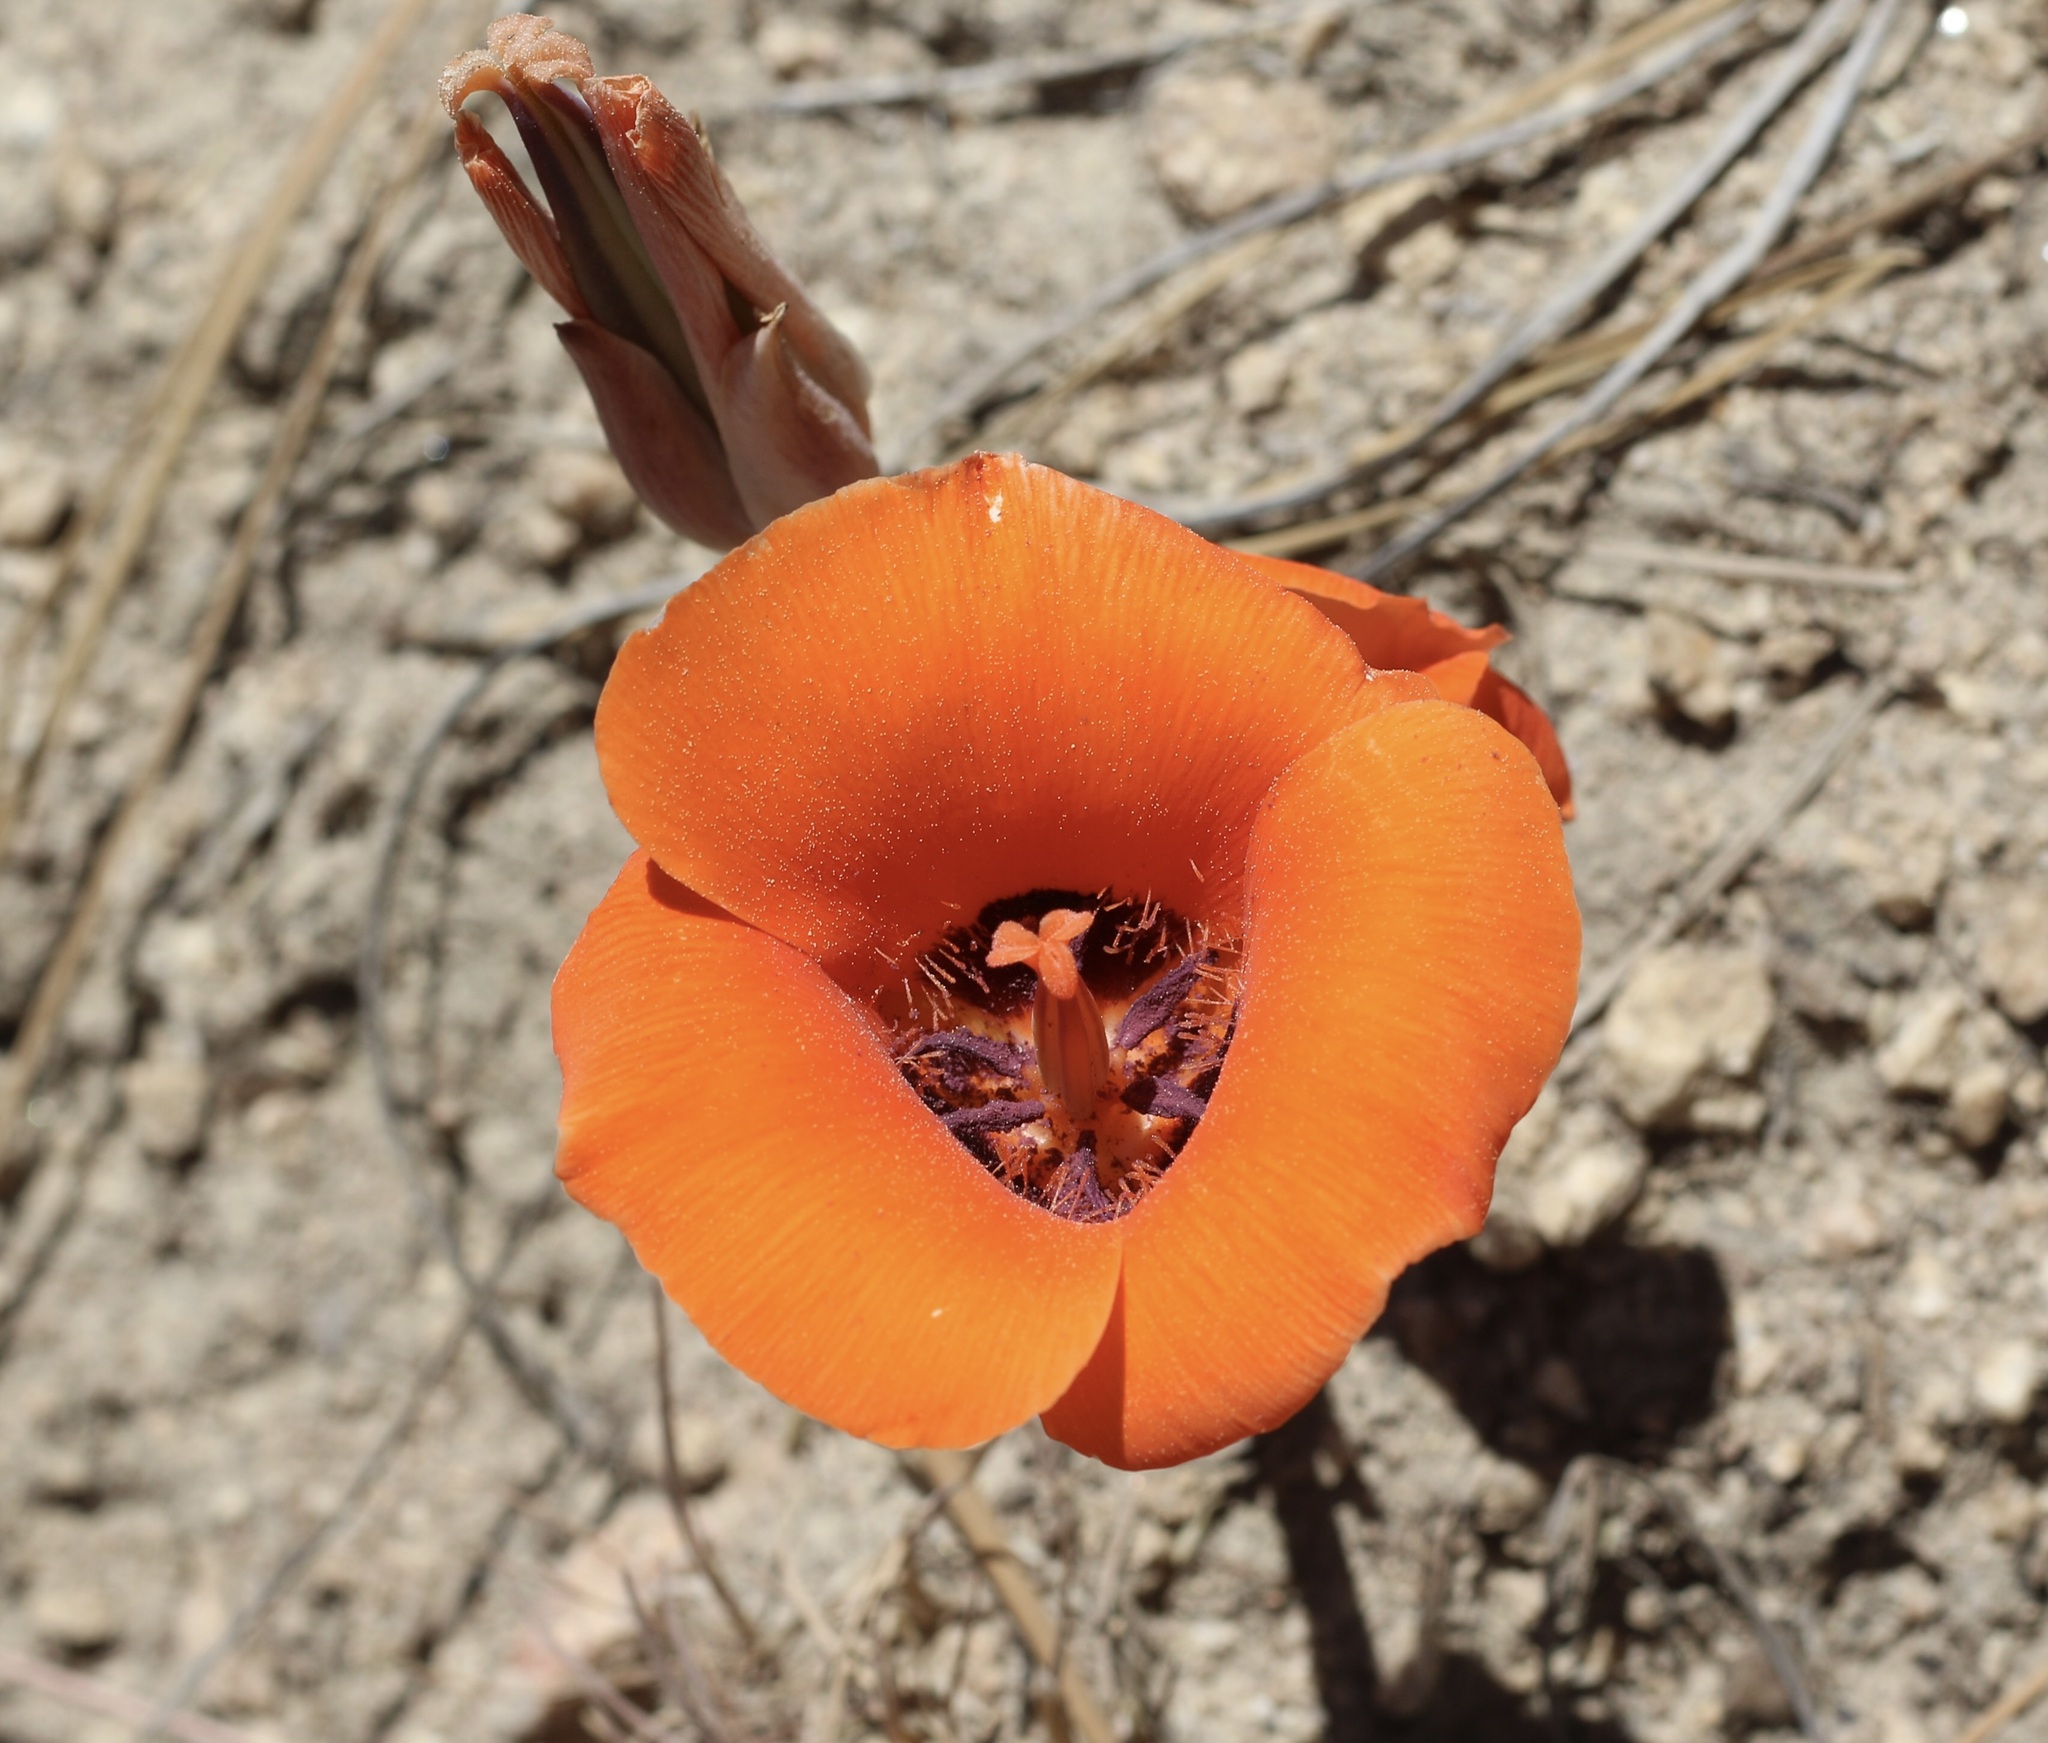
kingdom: Plantae
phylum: Tracheophyta
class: Liliopsida
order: Liliales
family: Liliaceae
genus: Calochortus
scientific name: Calochortus kennedyi
